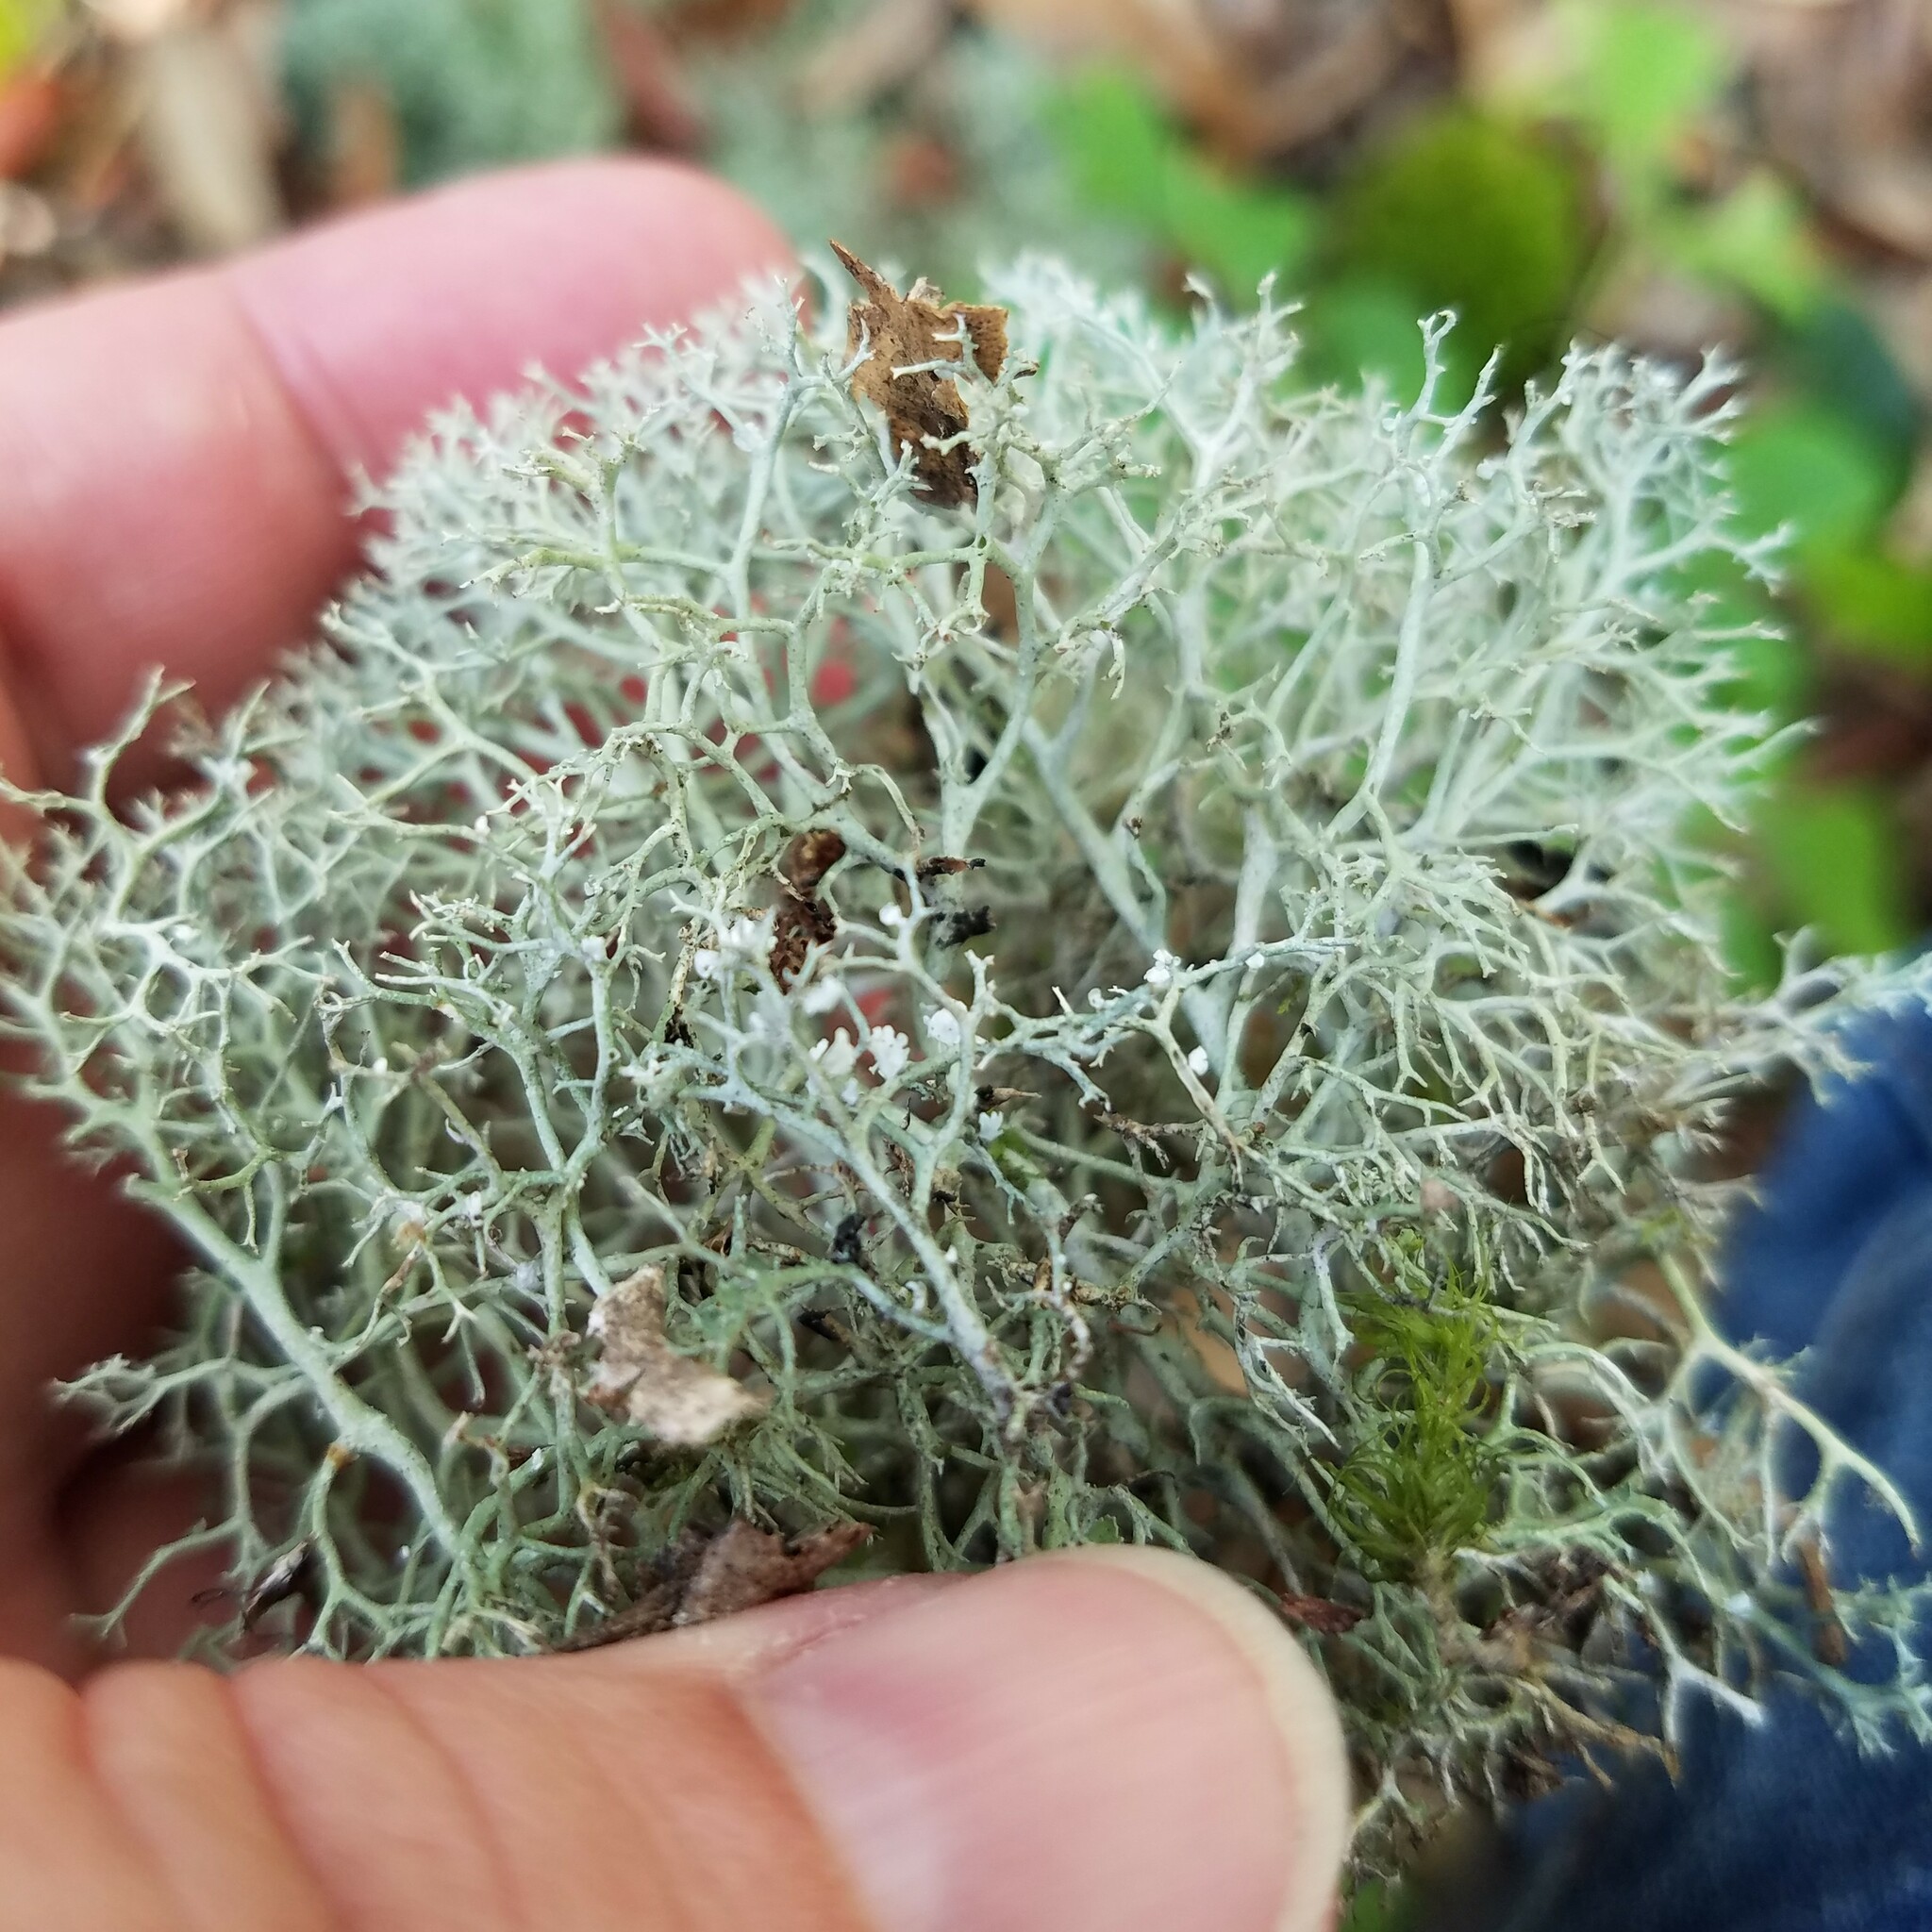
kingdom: Fungi
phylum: Ascomycota
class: Lecanoromycetes
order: Lecanorales
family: Cladoniaceae
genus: Cladonia
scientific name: Cladonia furcata
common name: Many-forked cladonia
